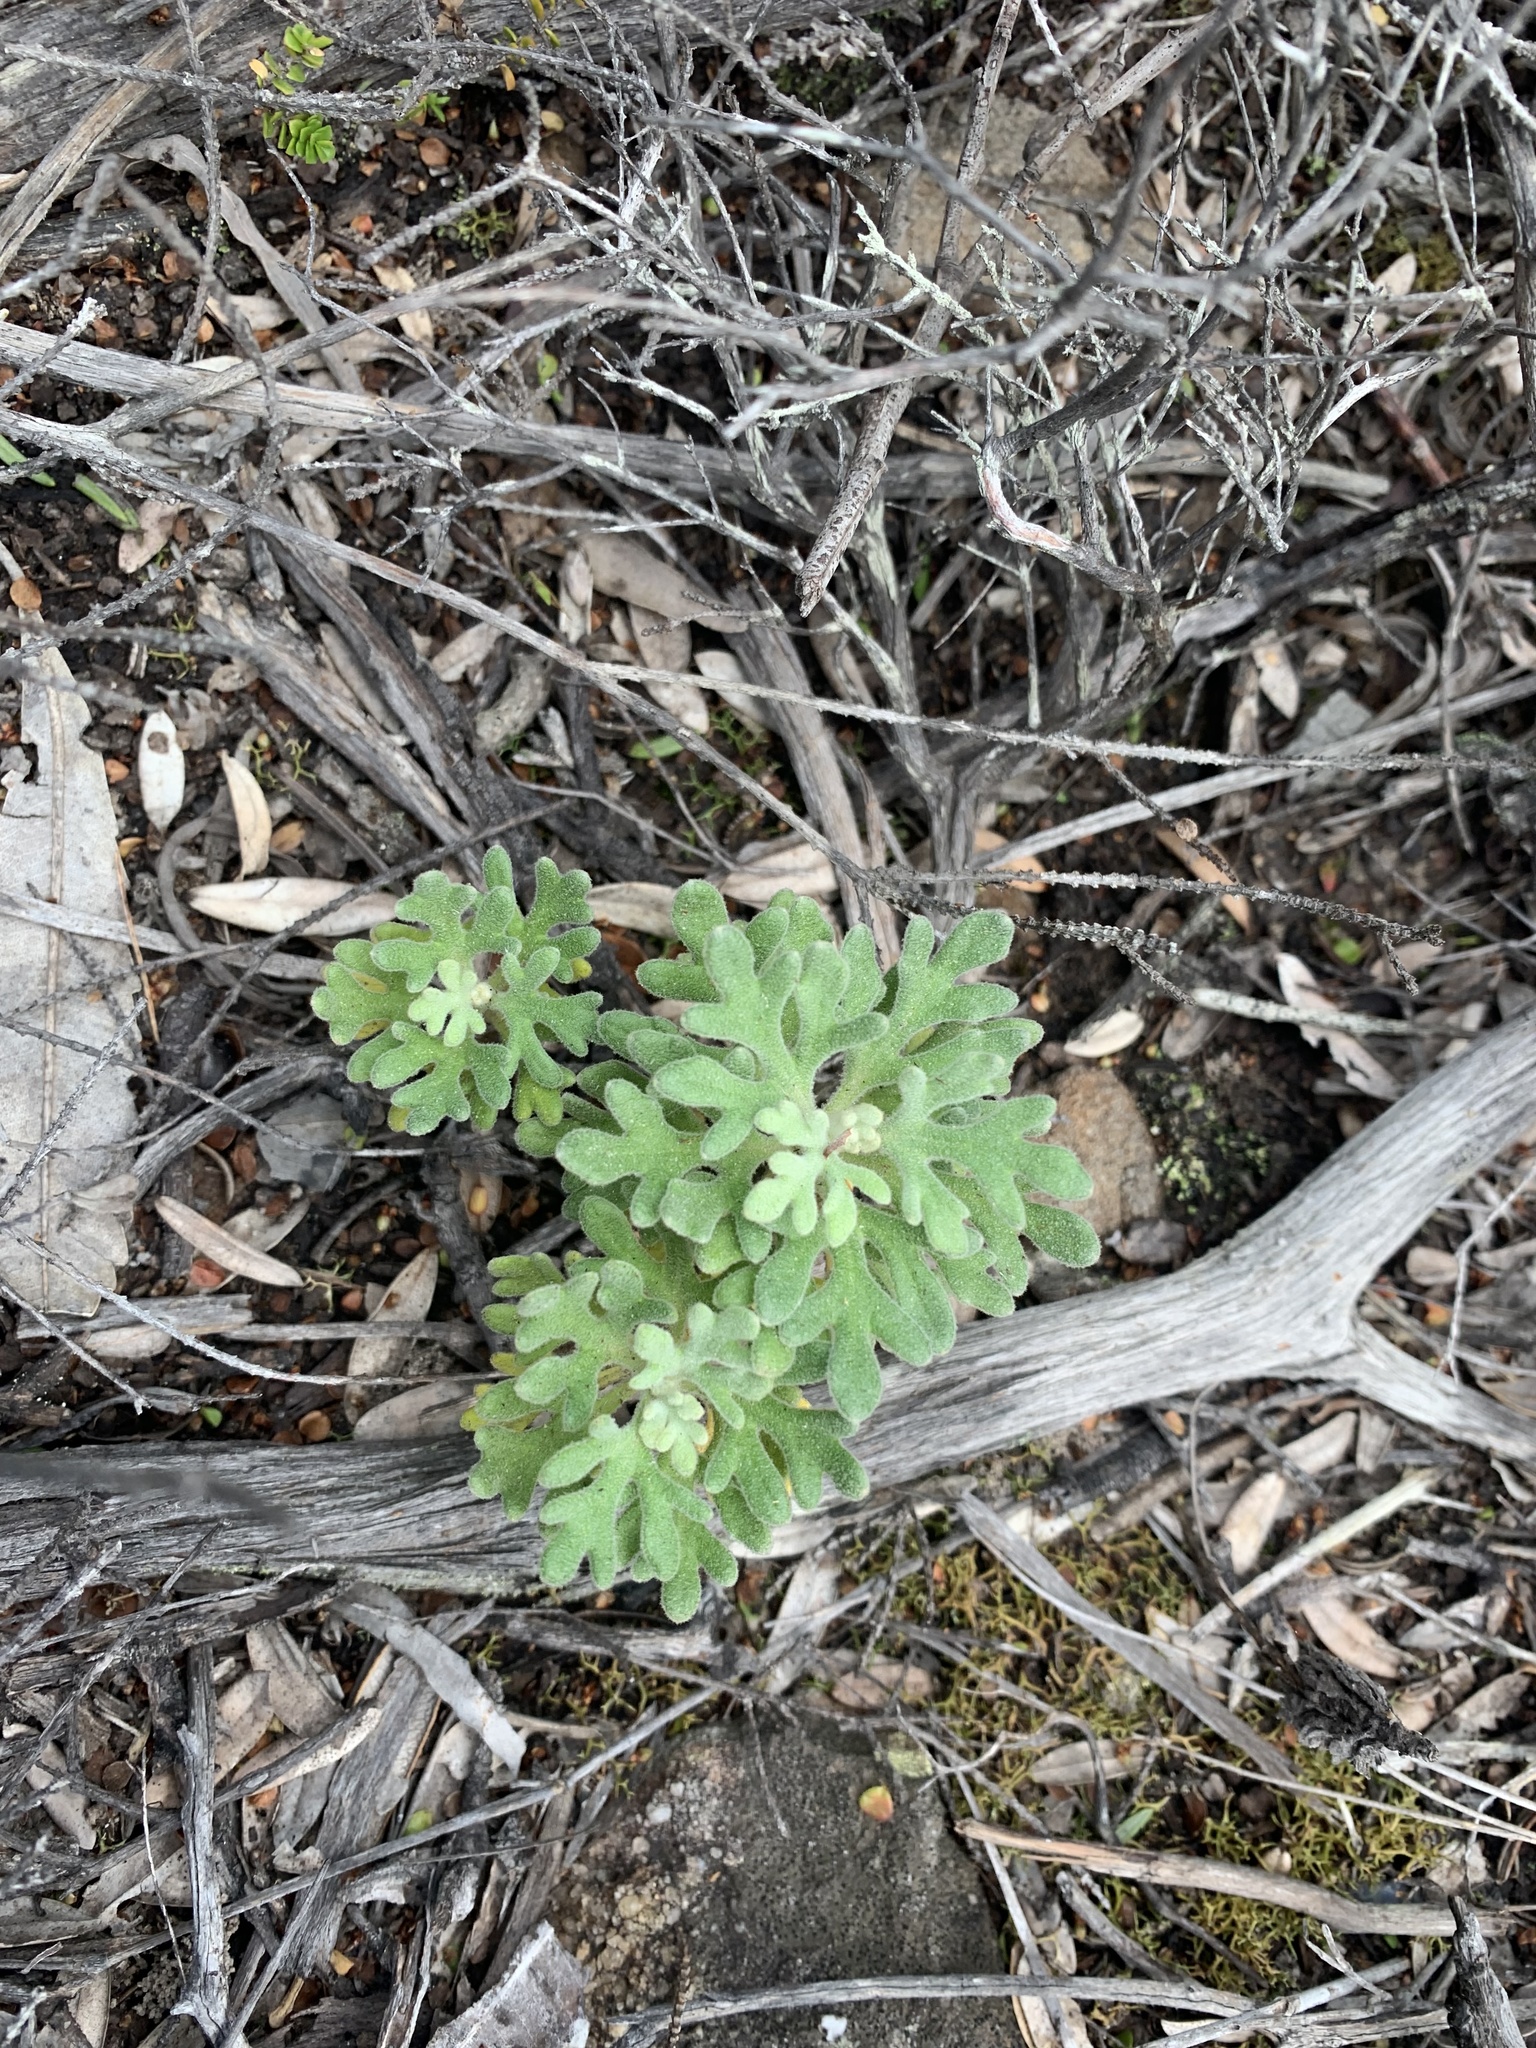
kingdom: Plantae
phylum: Tracheophyta
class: Magnoliopsida
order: Apiales
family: Apiaceae
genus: Actinotus
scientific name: Actinotus helianthi
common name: Flannel-flower
